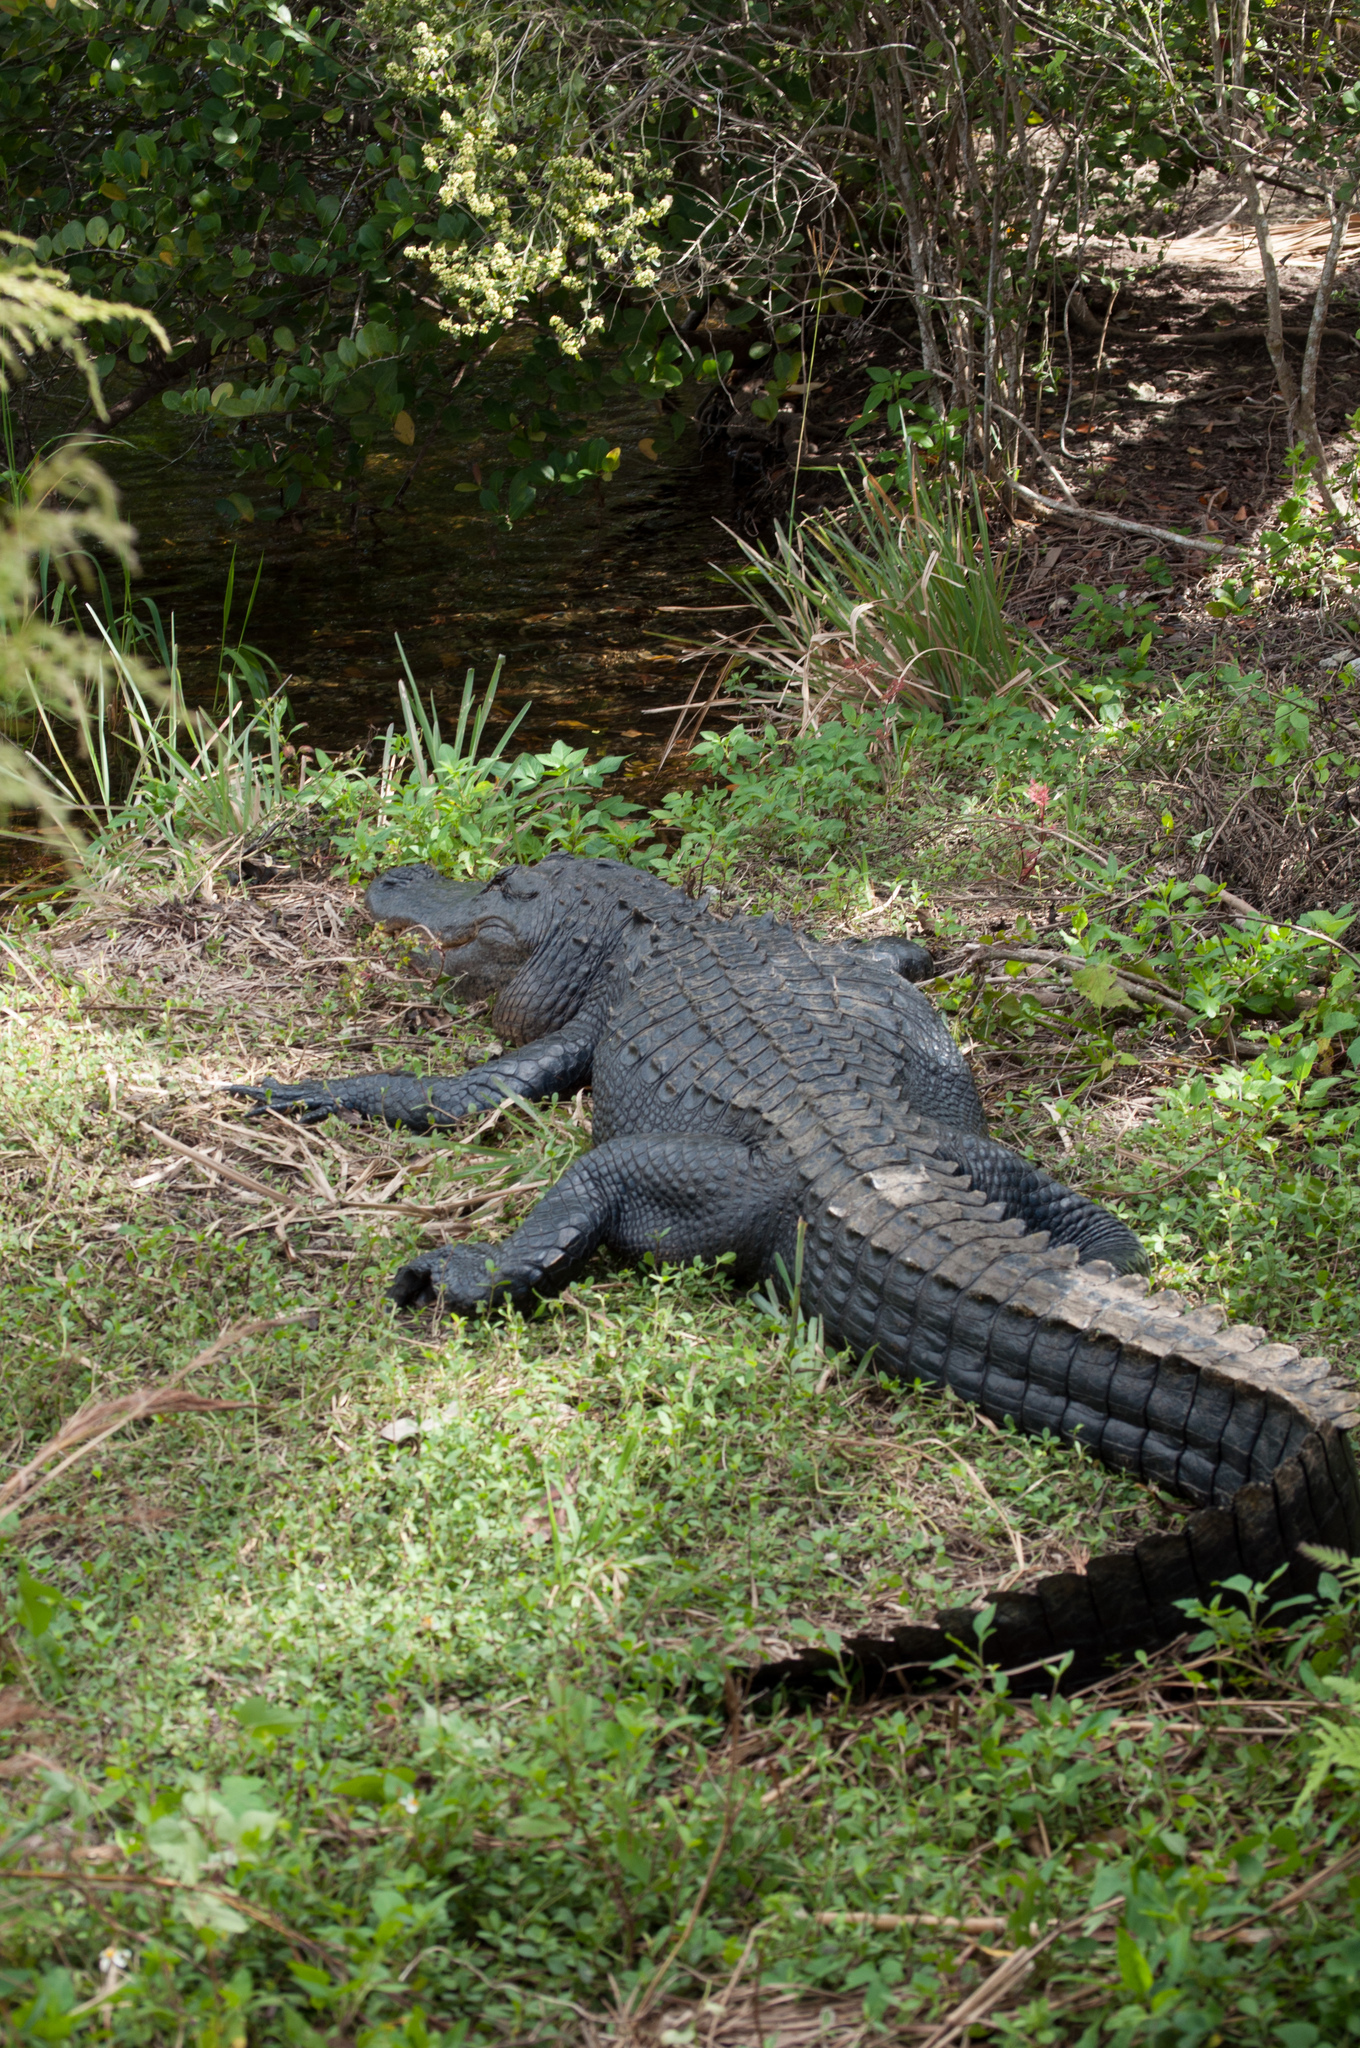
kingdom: Animalia
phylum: Chordata
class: Crocodylia
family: Alligatoridae
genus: Alligator
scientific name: Alligator mississippiensis
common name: American alligator
